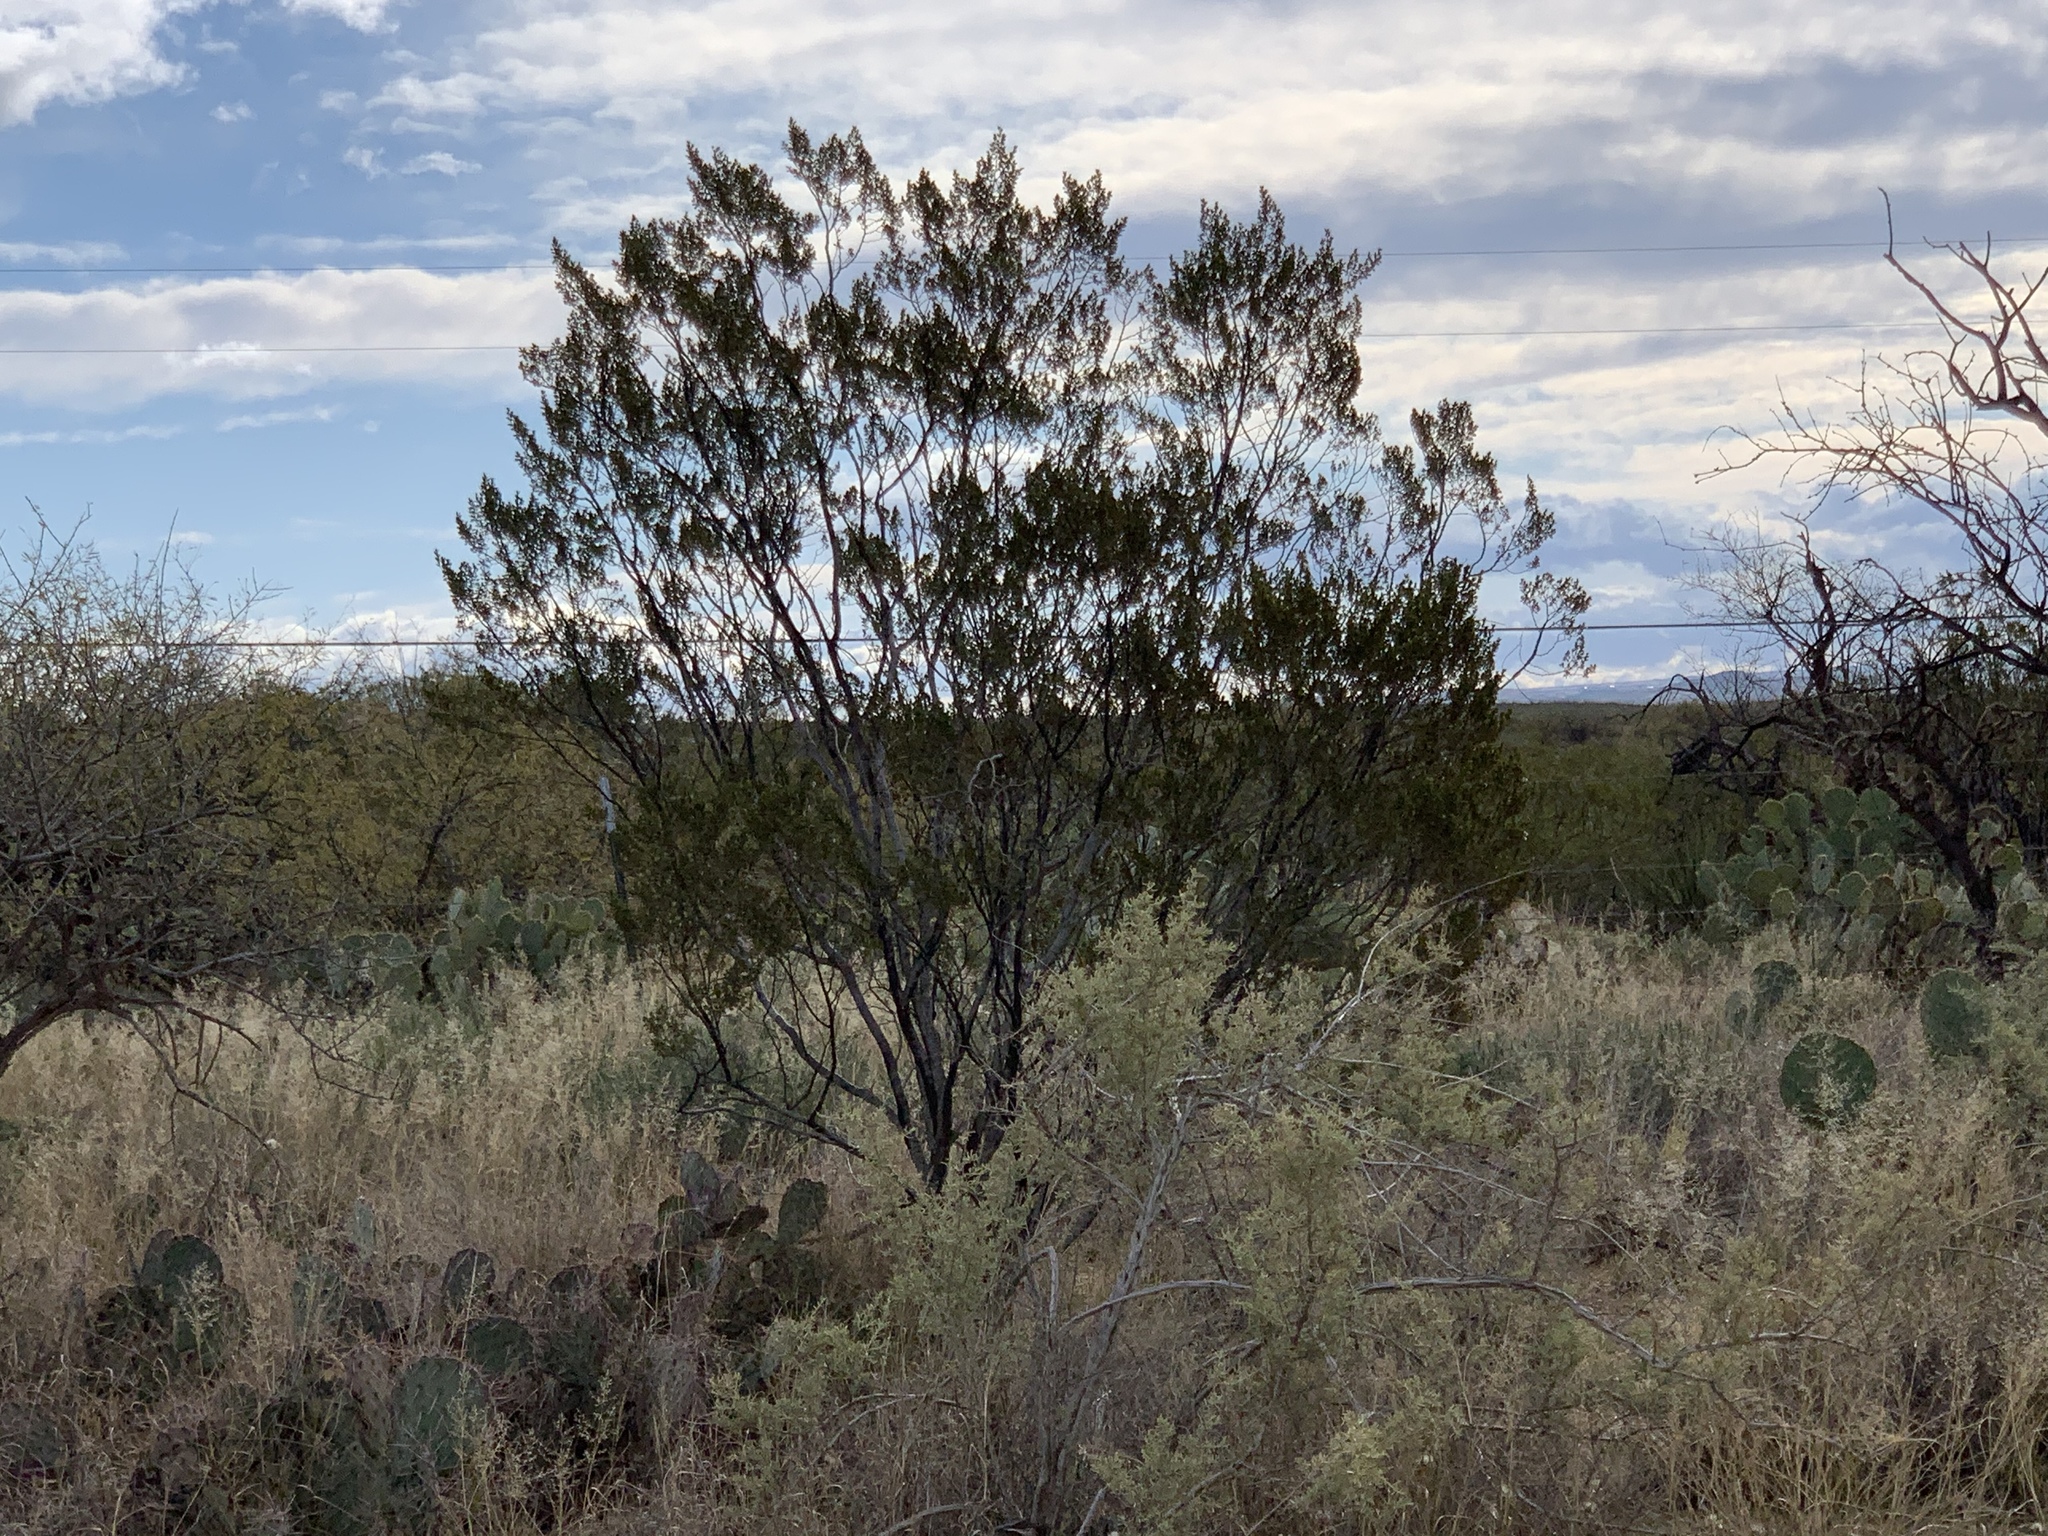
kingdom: Plantae
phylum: Tracheophyta
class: Magnoliopsida
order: Zygophyllales
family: Zygophyllaceae
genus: Larrea
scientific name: Larrea tridentata
